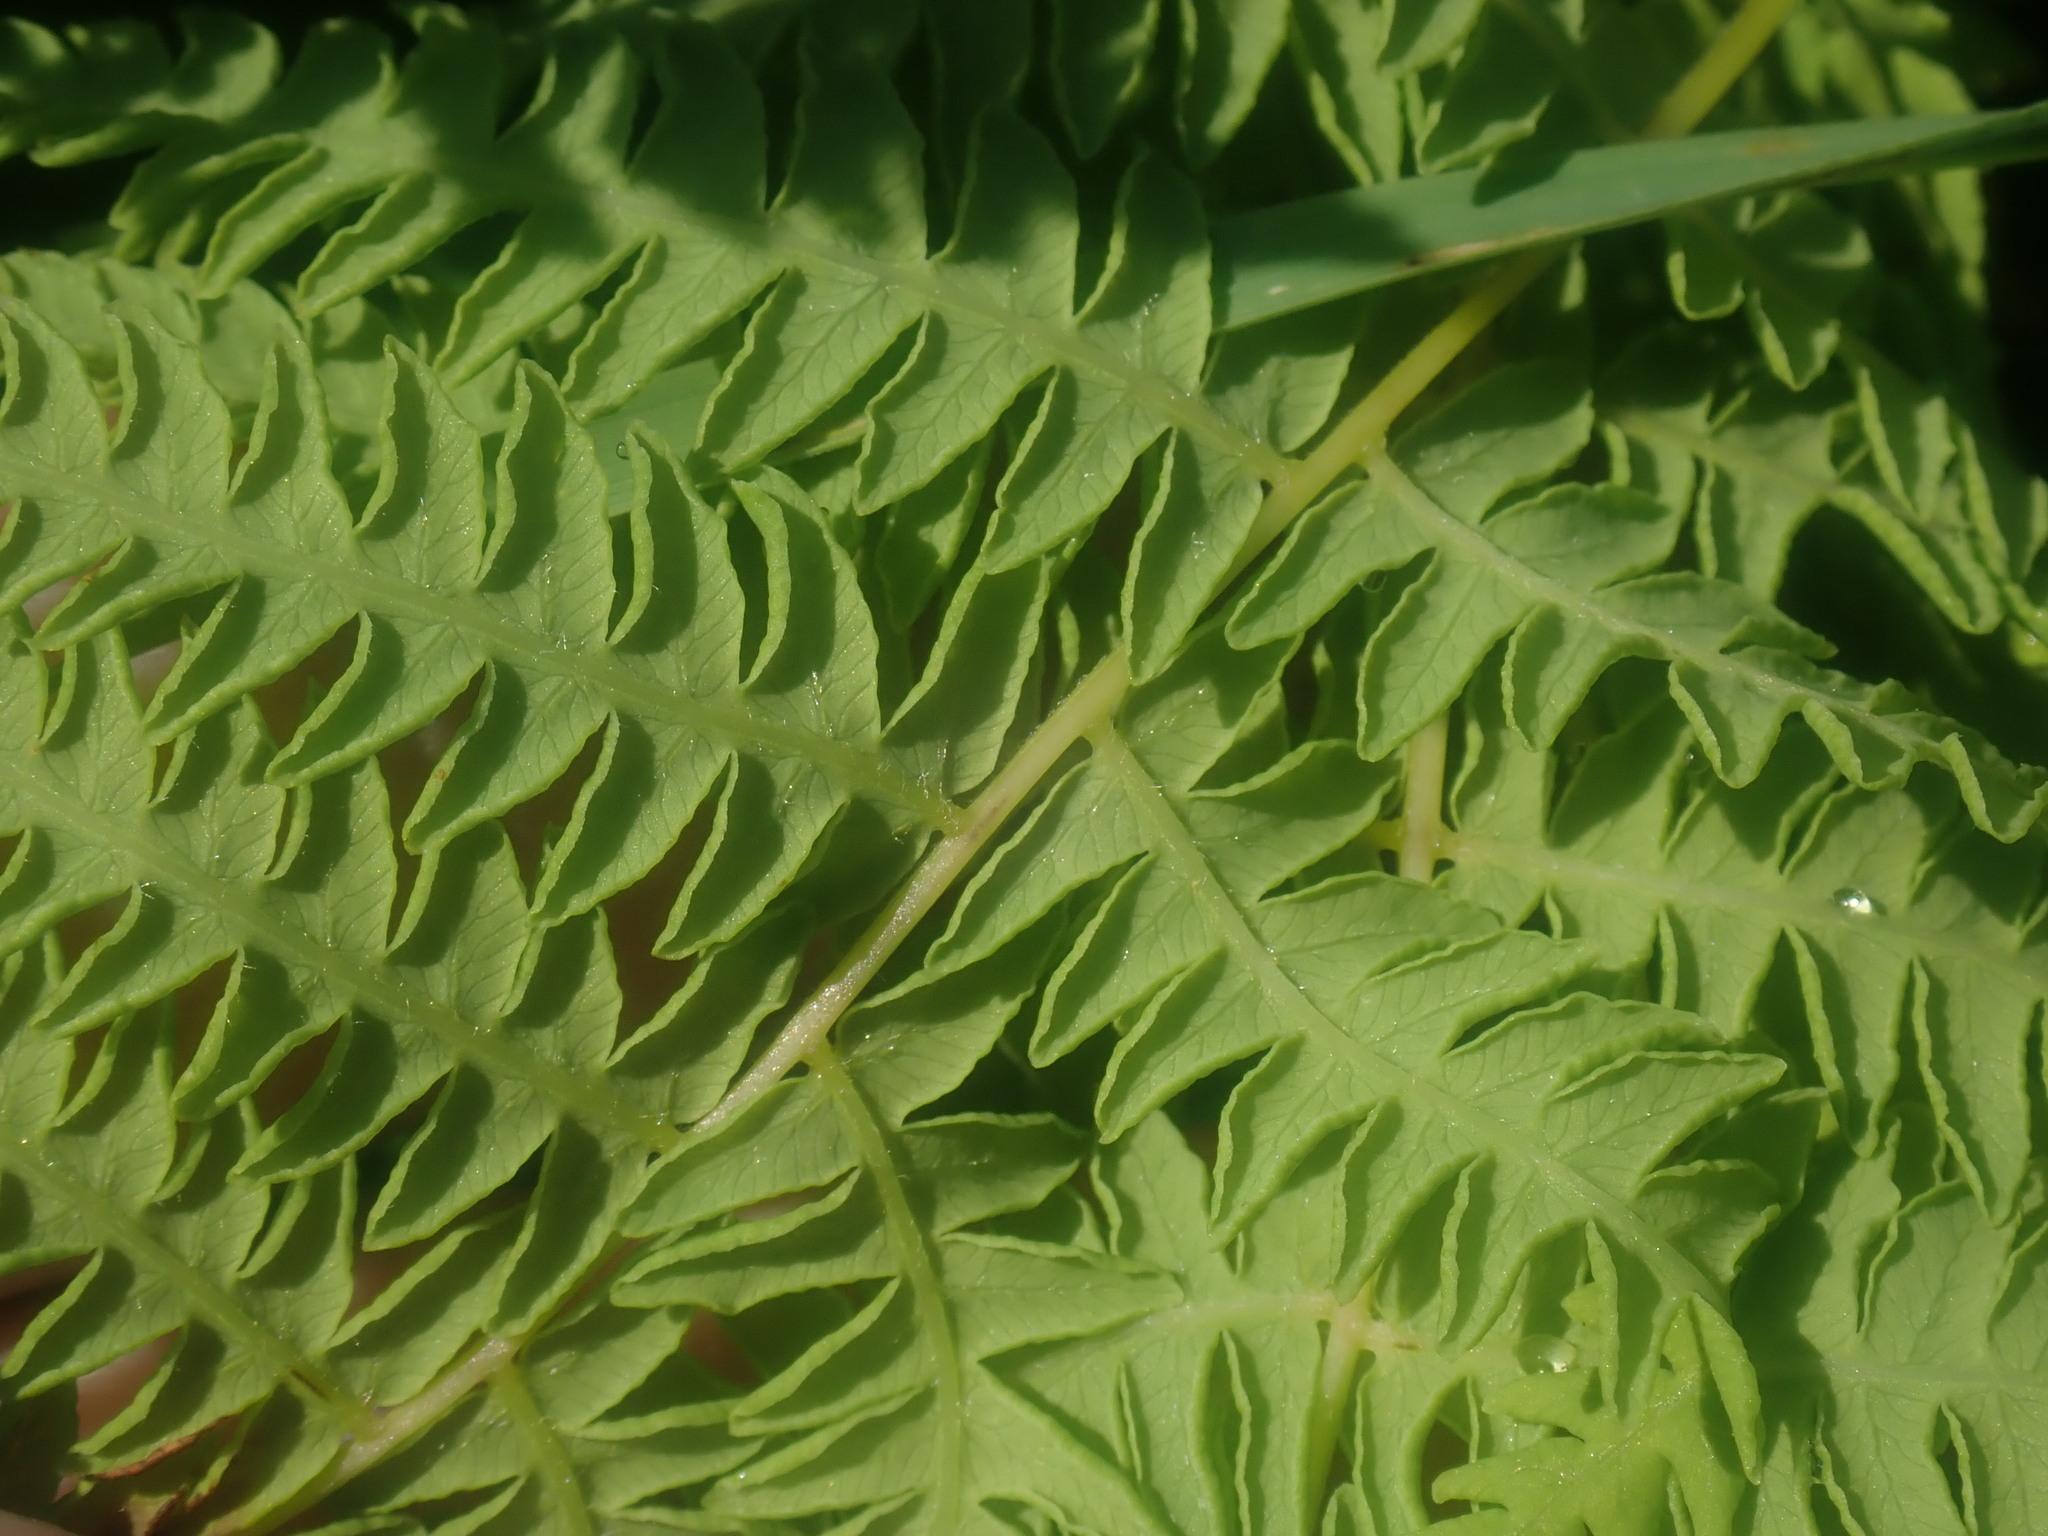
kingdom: Plantae
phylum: Tracheophyta
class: Polypodiopsida
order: Polypodiales
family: Thelypteridaceae
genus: Thelypteris
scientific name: Thelypteris palustris
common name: Marsh fern
